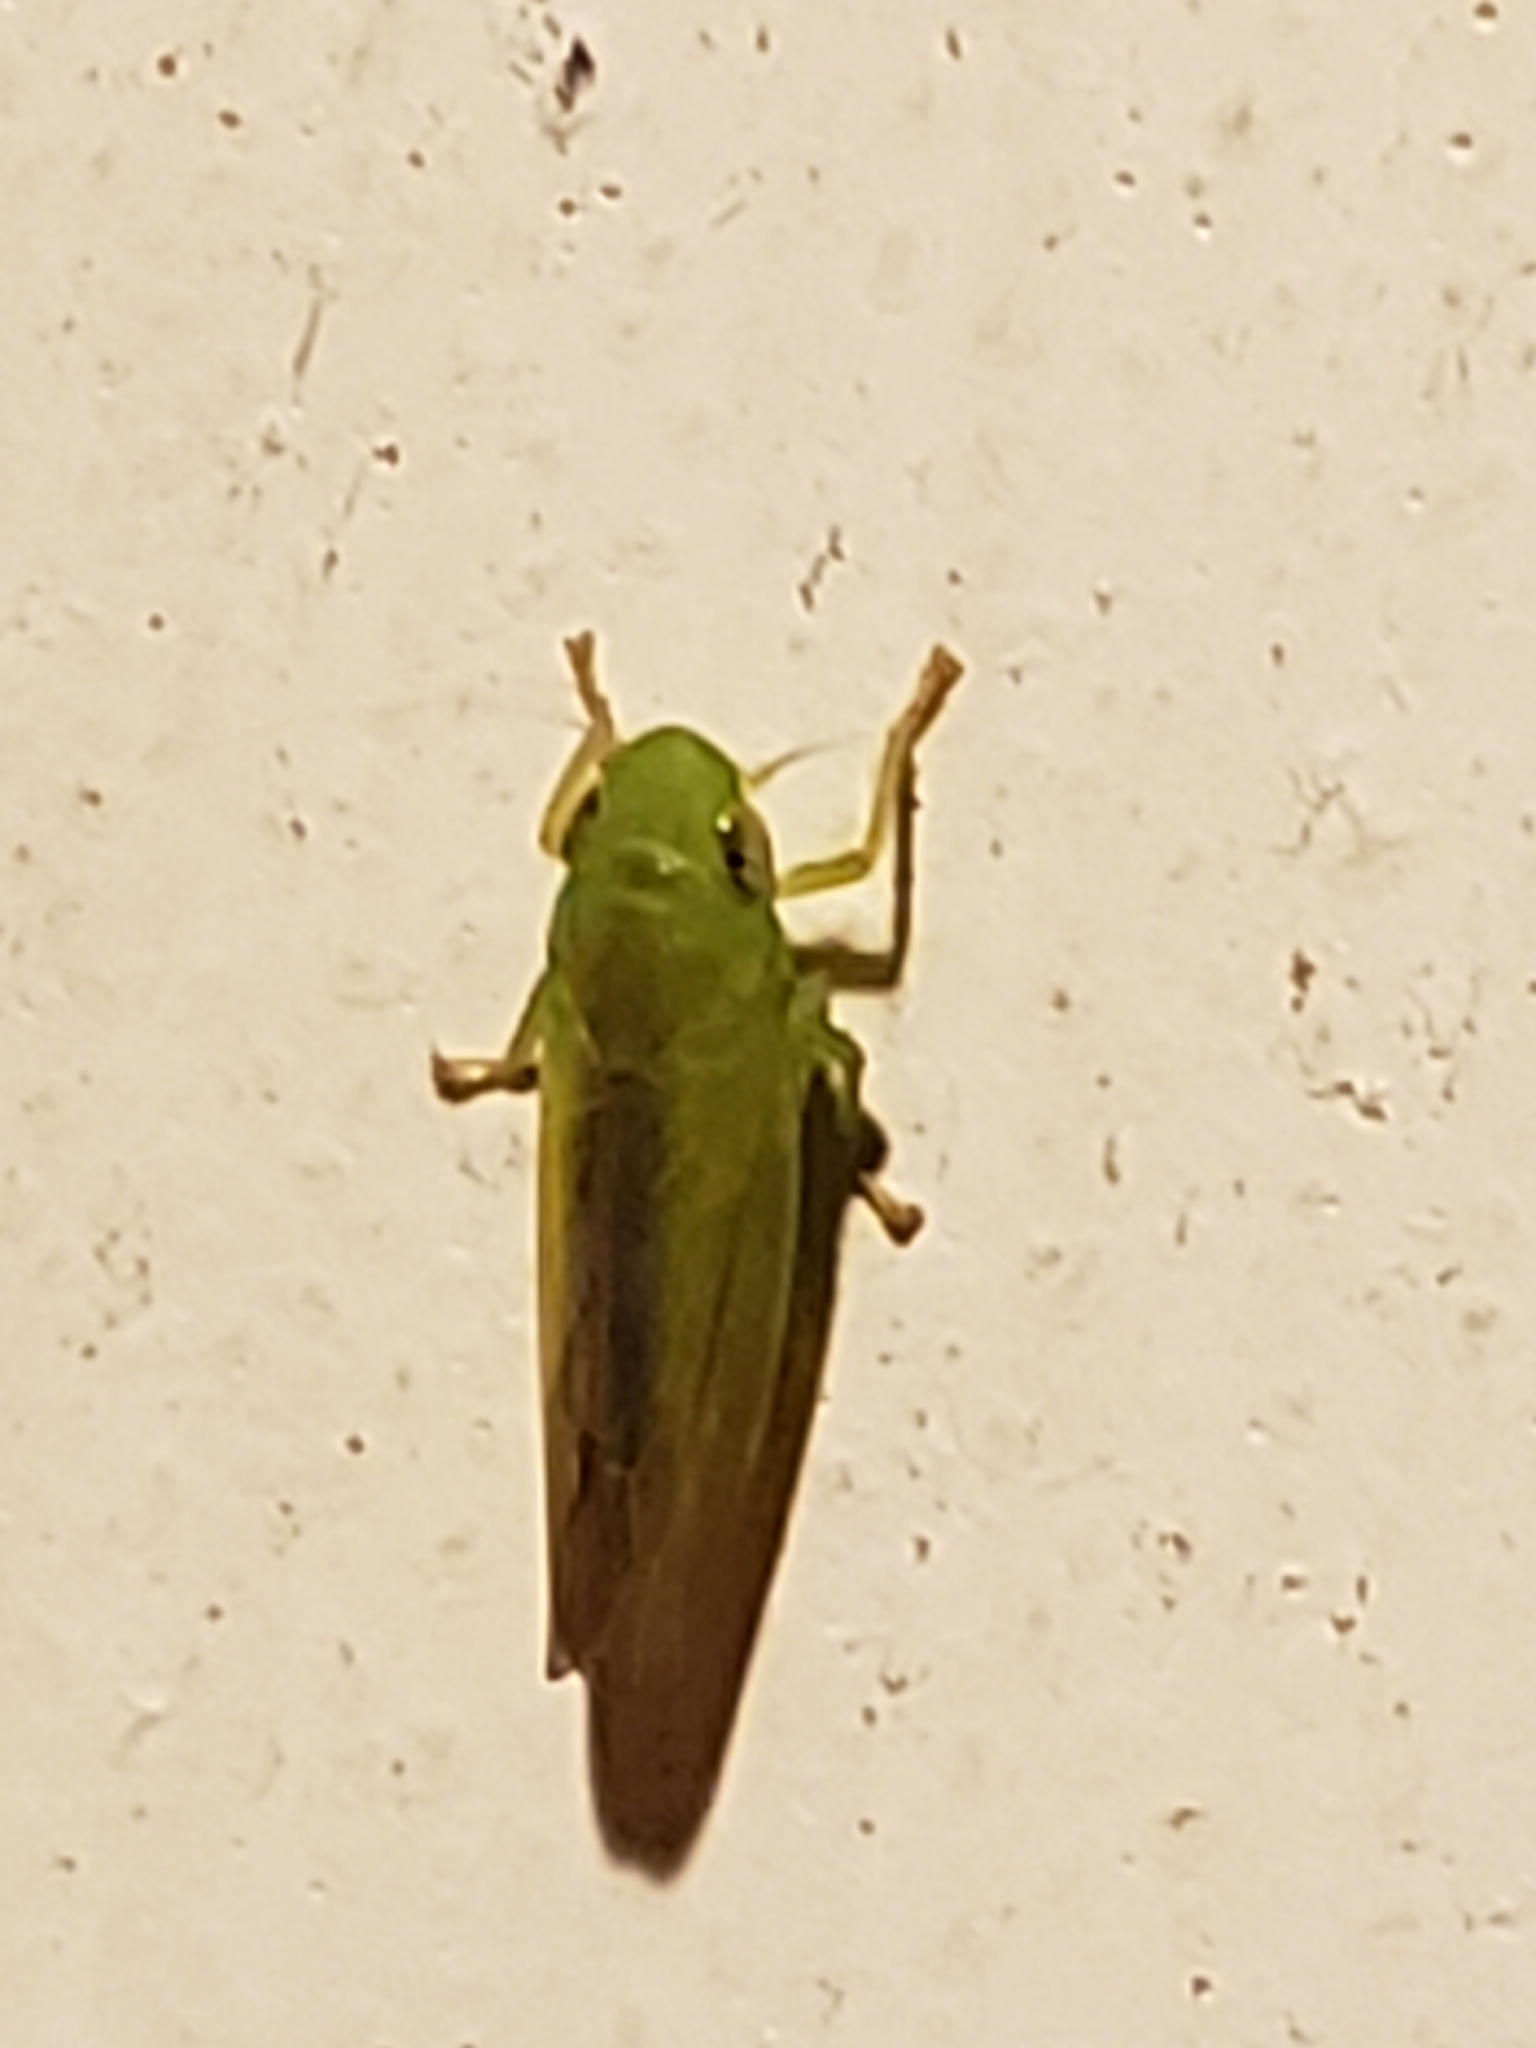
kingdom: Animalia
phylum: Arthropoda
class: Insecta
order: Hemiptera
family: Cicadellidae
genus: Neocoelidia
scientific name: Neocoelidia tuberculata
